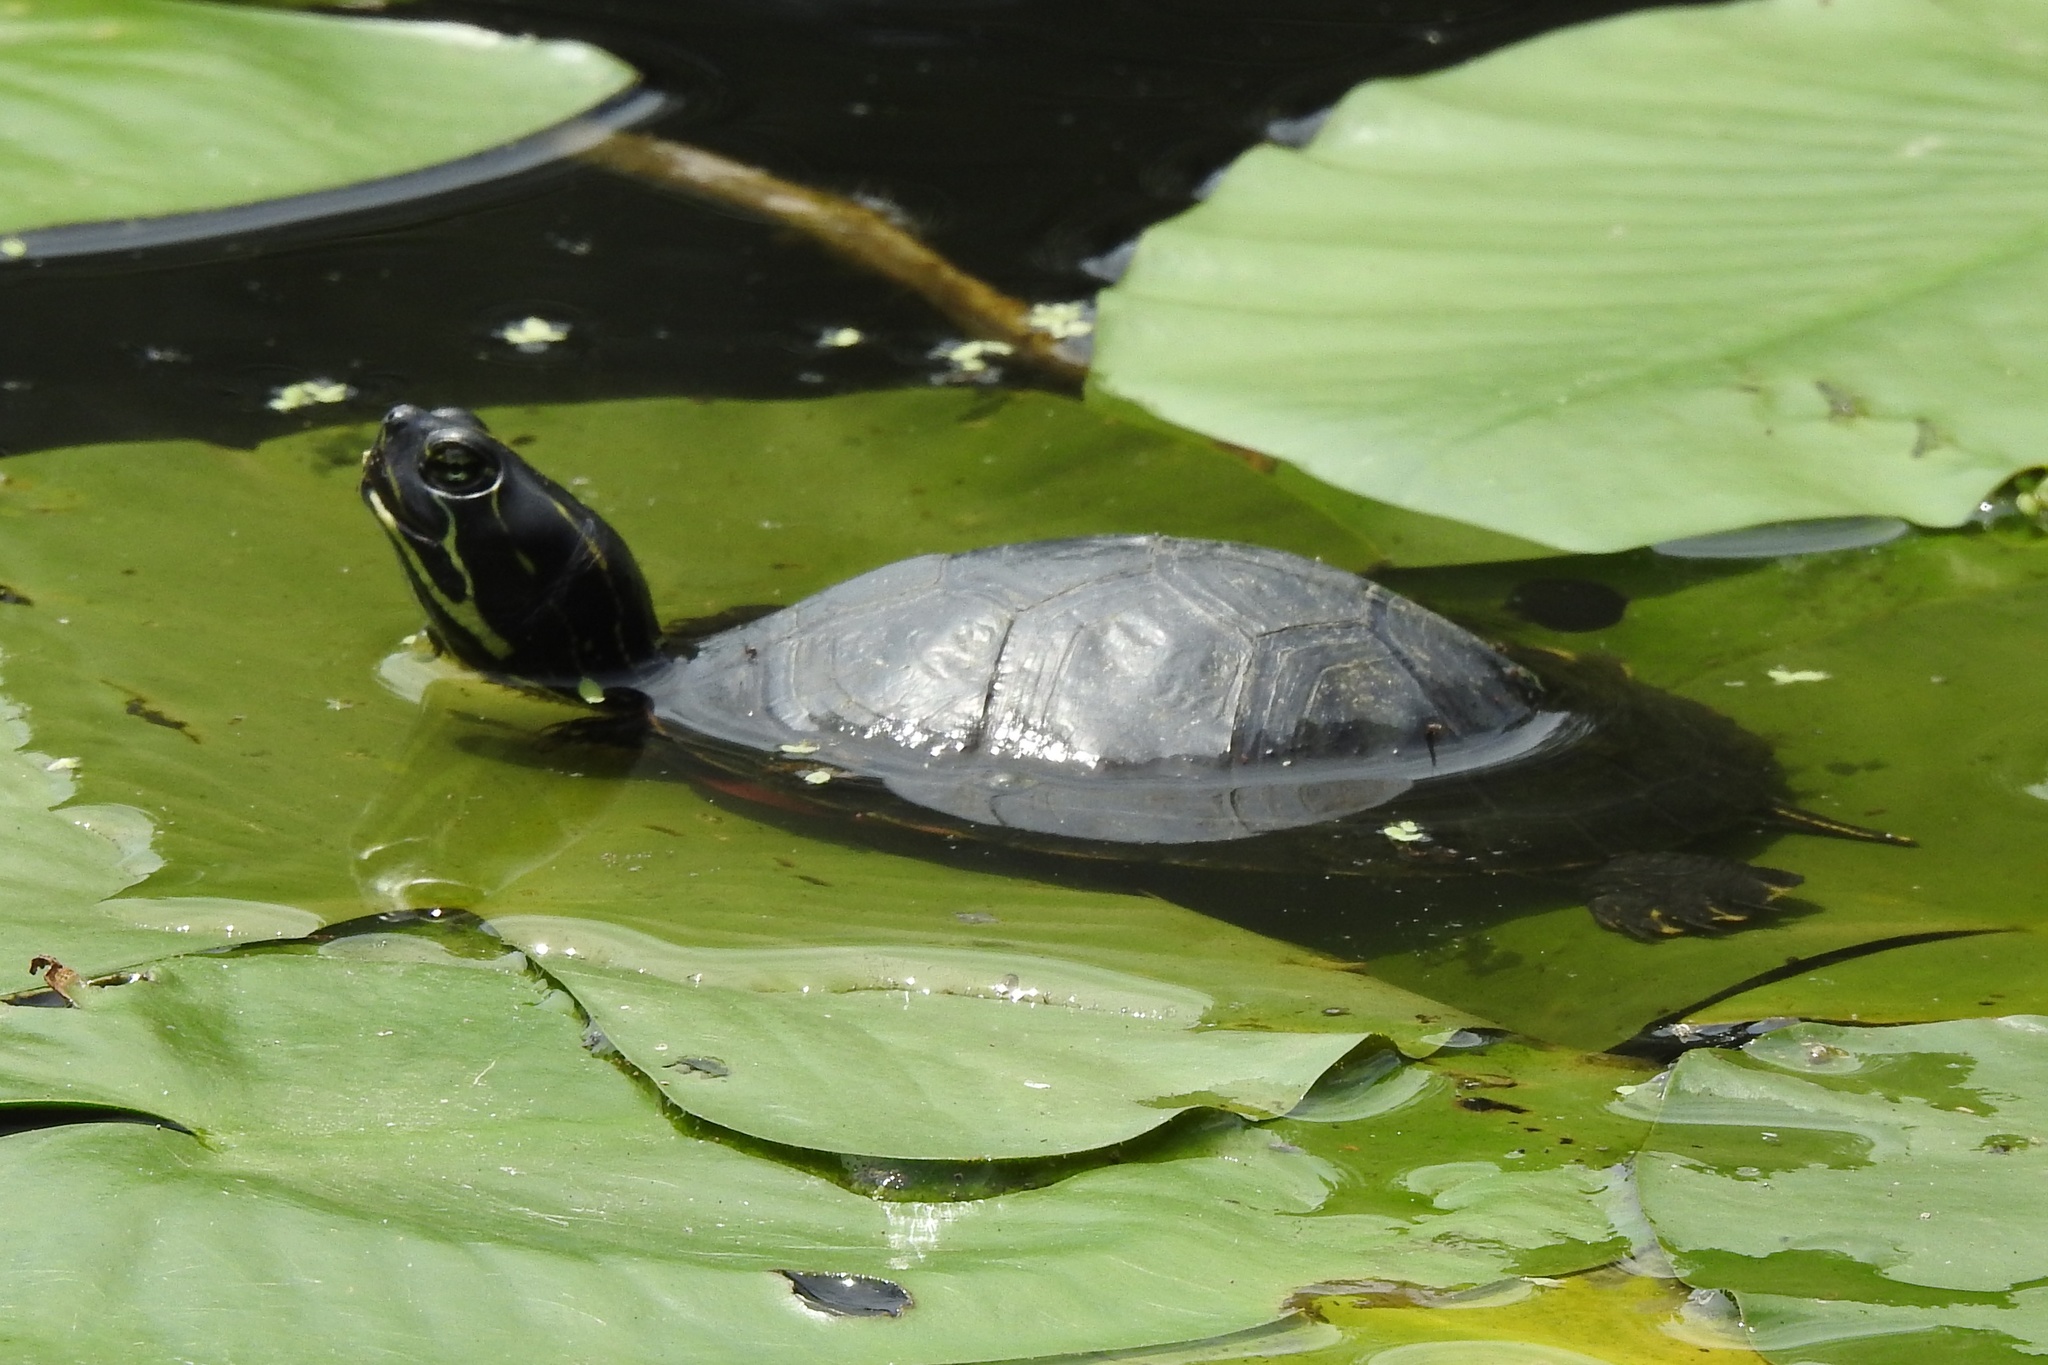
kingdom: Animalia
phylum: Chordata
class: Testudines
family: Emydidae
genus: Pseudemys
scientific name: Pseudemys rubriventris
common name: American red-bellied turtle
